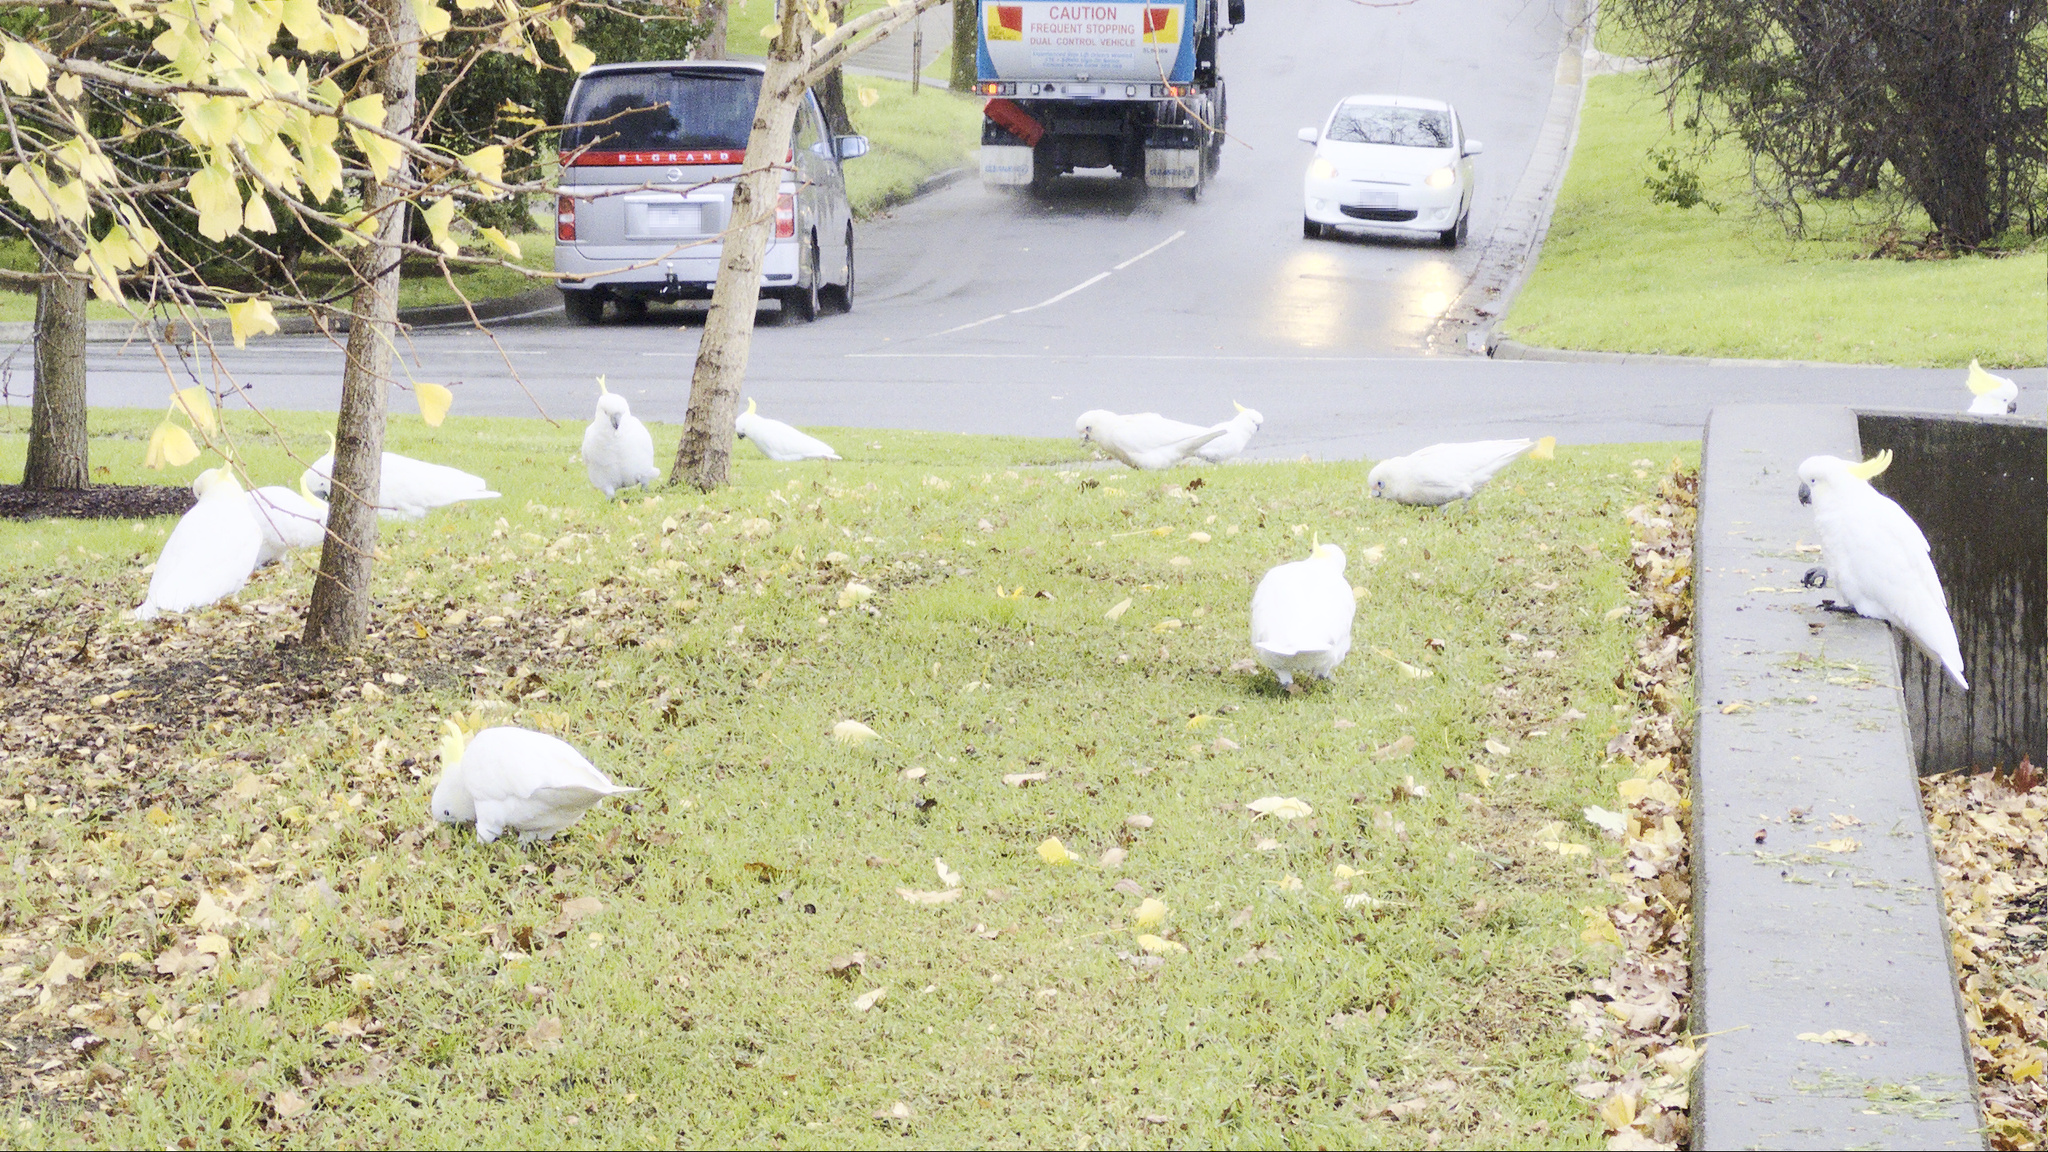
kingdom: Animalia
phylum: Chordata
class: Aves
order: Psittaciformes
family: Psittacidae
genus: Cacatua
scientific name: Cacatua galerita
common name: Sulphur-crested cockatoo
